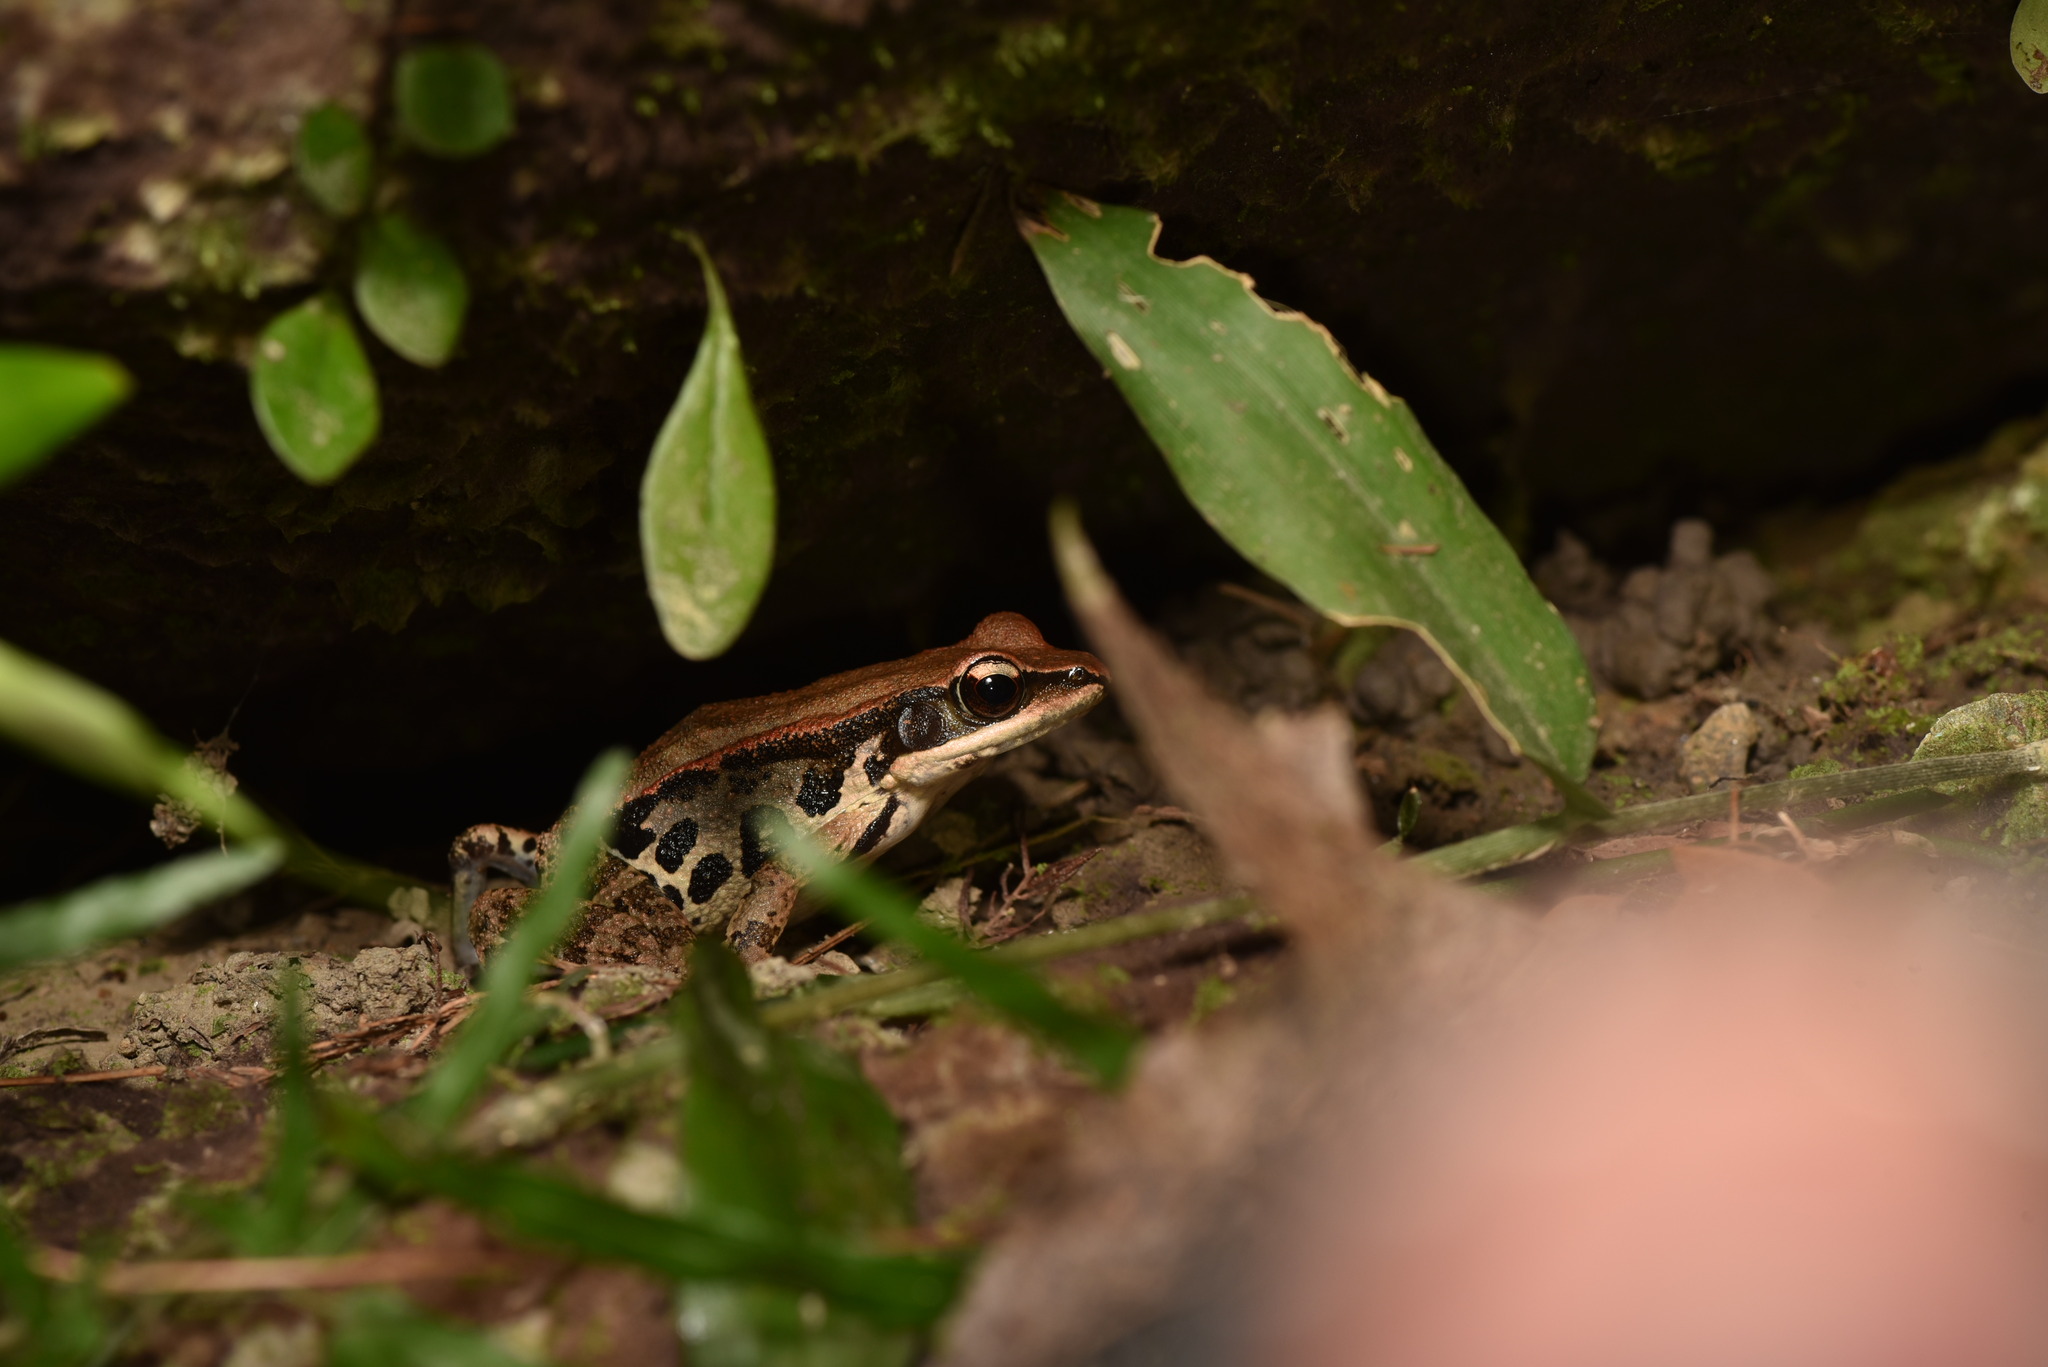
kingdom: Animalia
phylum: Chordata
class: Amphibia
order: Anura
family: Ranidae
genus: Hylarana
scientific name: Hylarana latouchii
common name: Broad-folded frog
